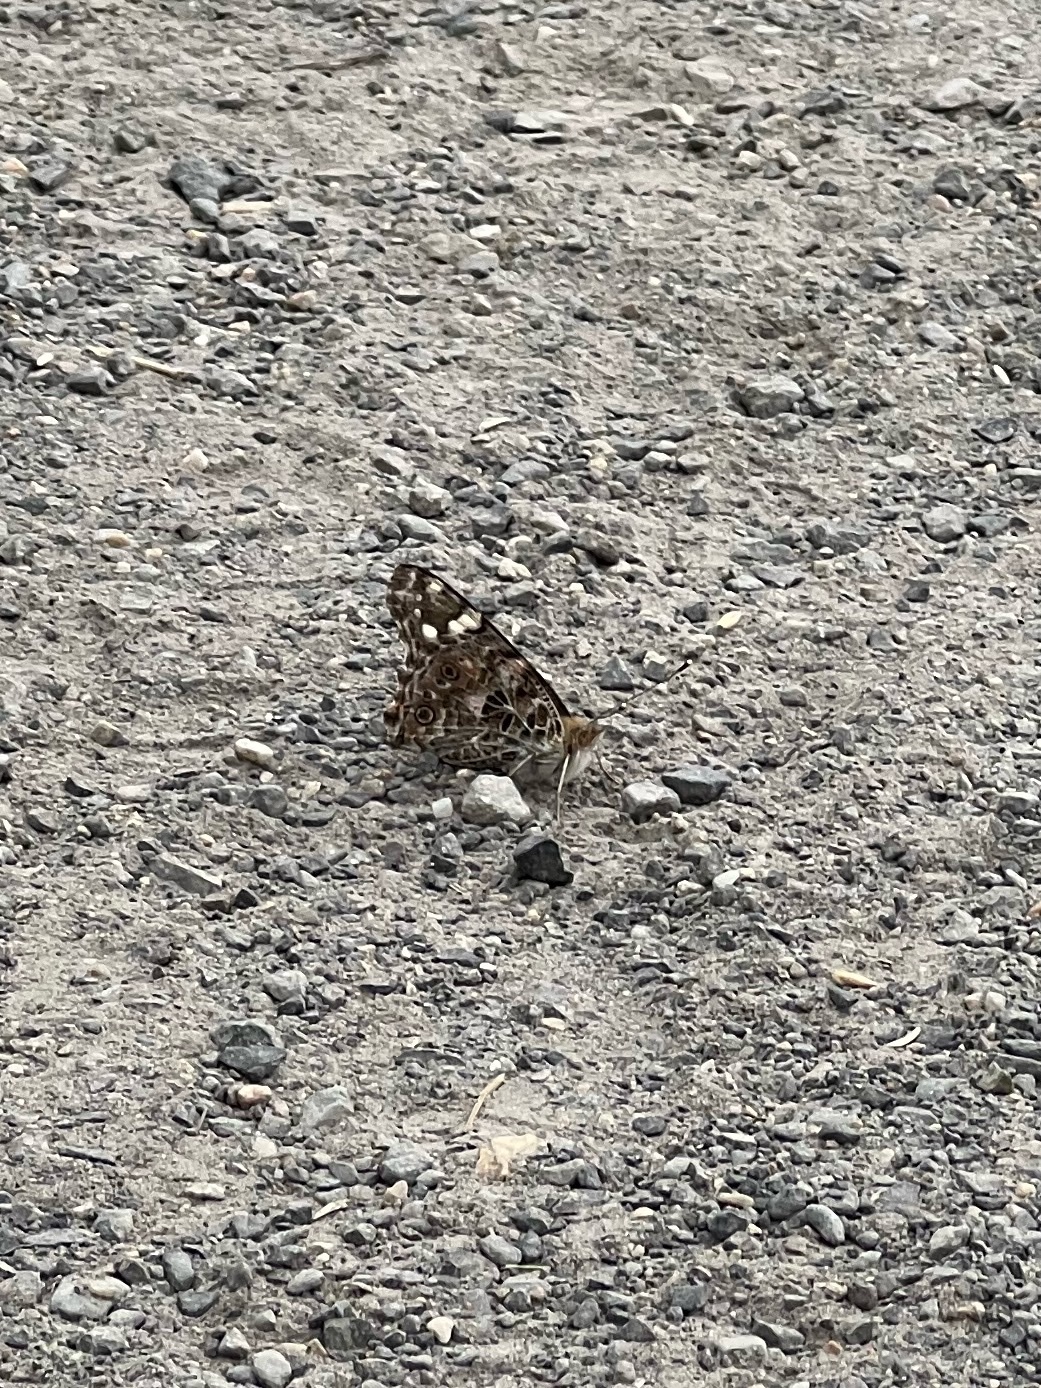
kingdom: Animalia
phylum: Arthropoda
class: Insecta
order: Lepidoptera
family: Nymphalidae
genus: Vanessa
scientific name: Vanessa cardui
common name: Painted lady
